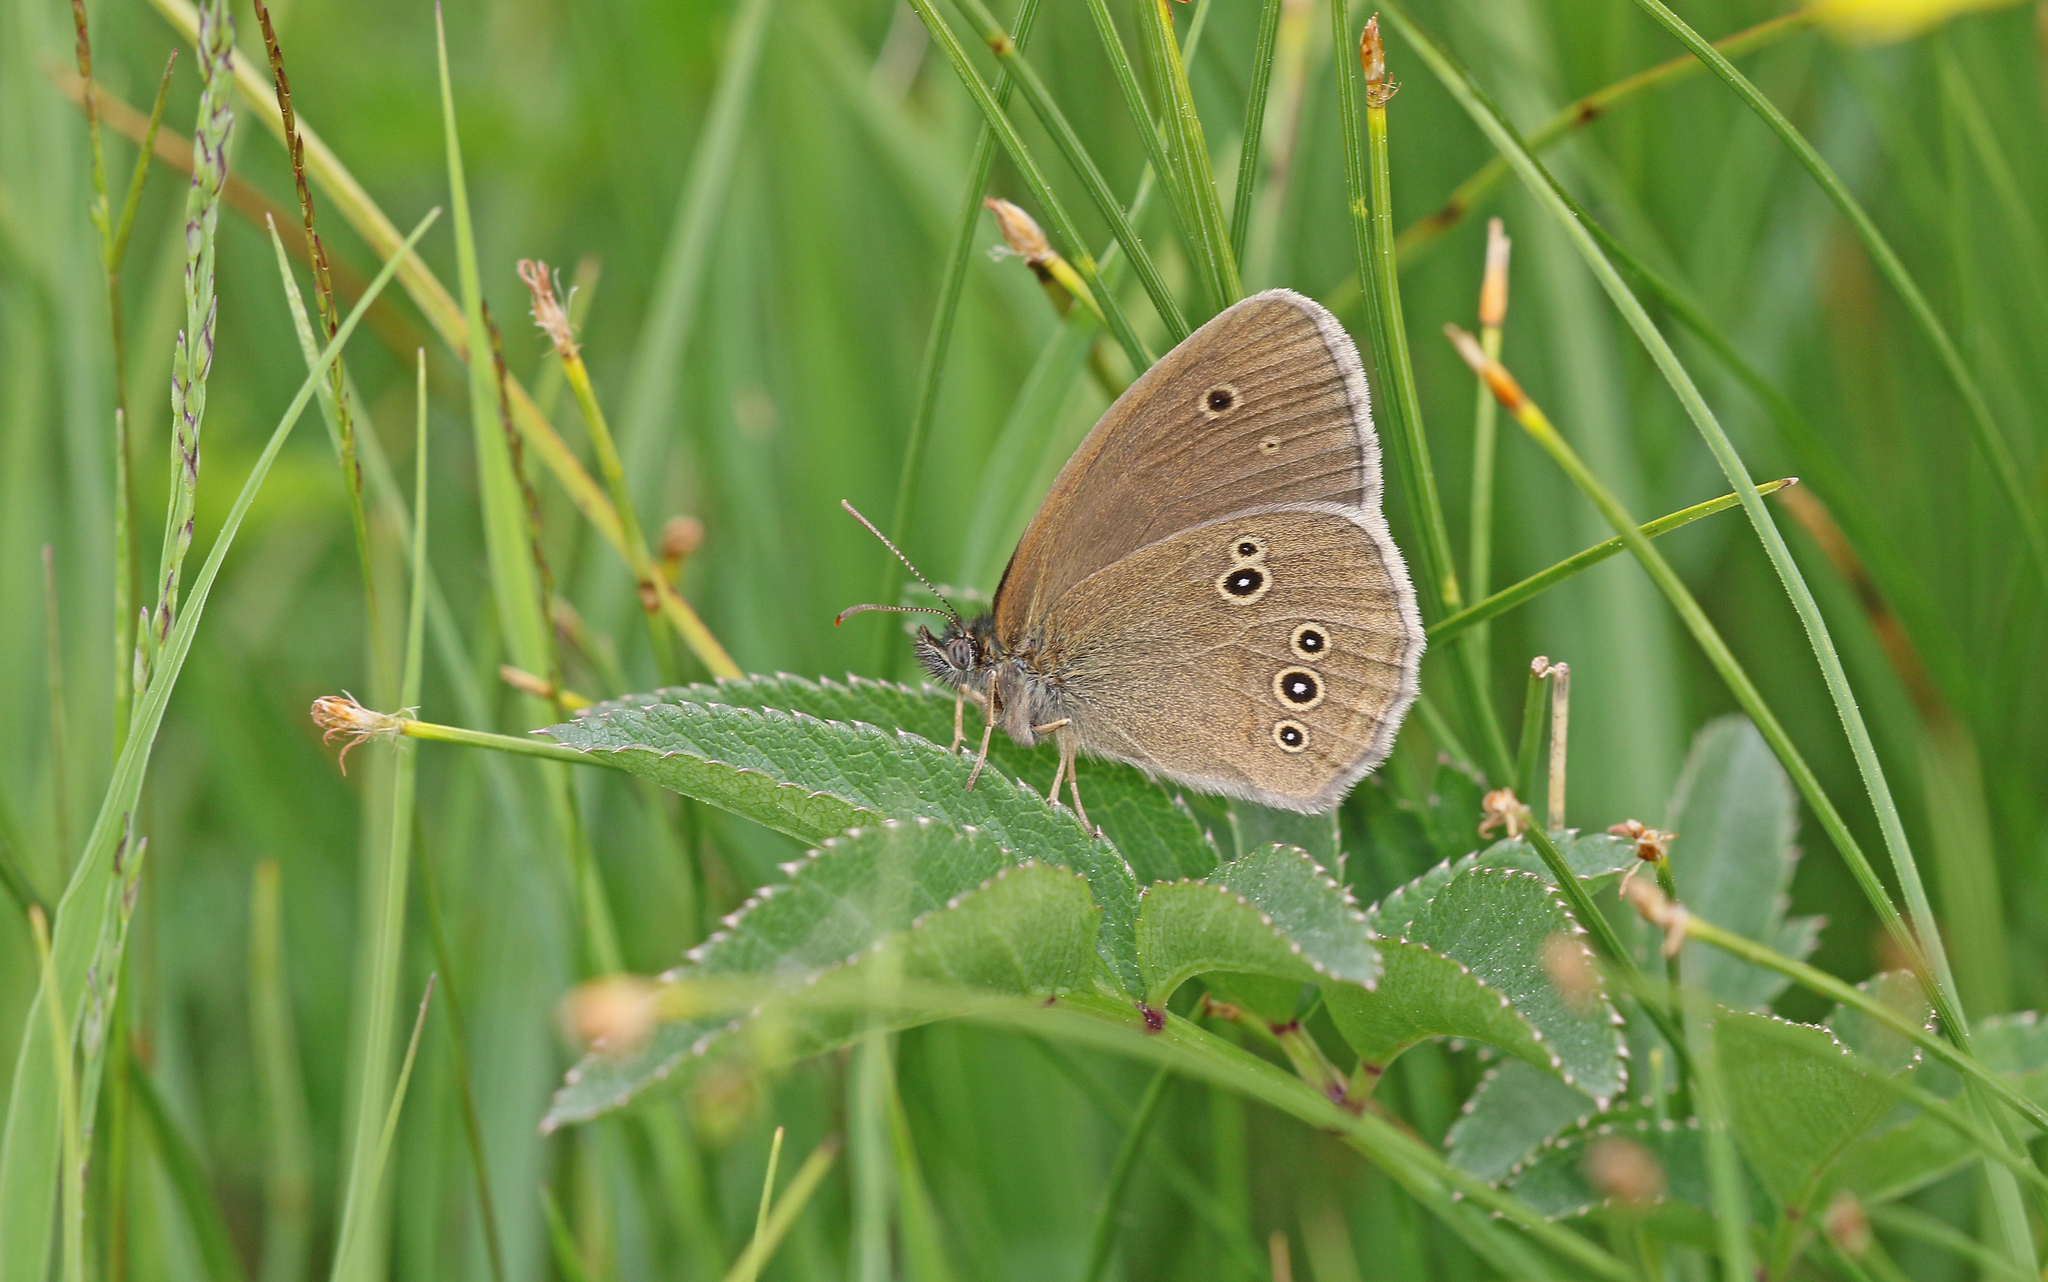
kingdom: Animalia
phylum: Arthropoda
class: Insecta
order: Lepidoptera
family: Nymphalidae
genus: Aphantopus
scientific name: Aphantopus hyperantus
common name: Ringlet
